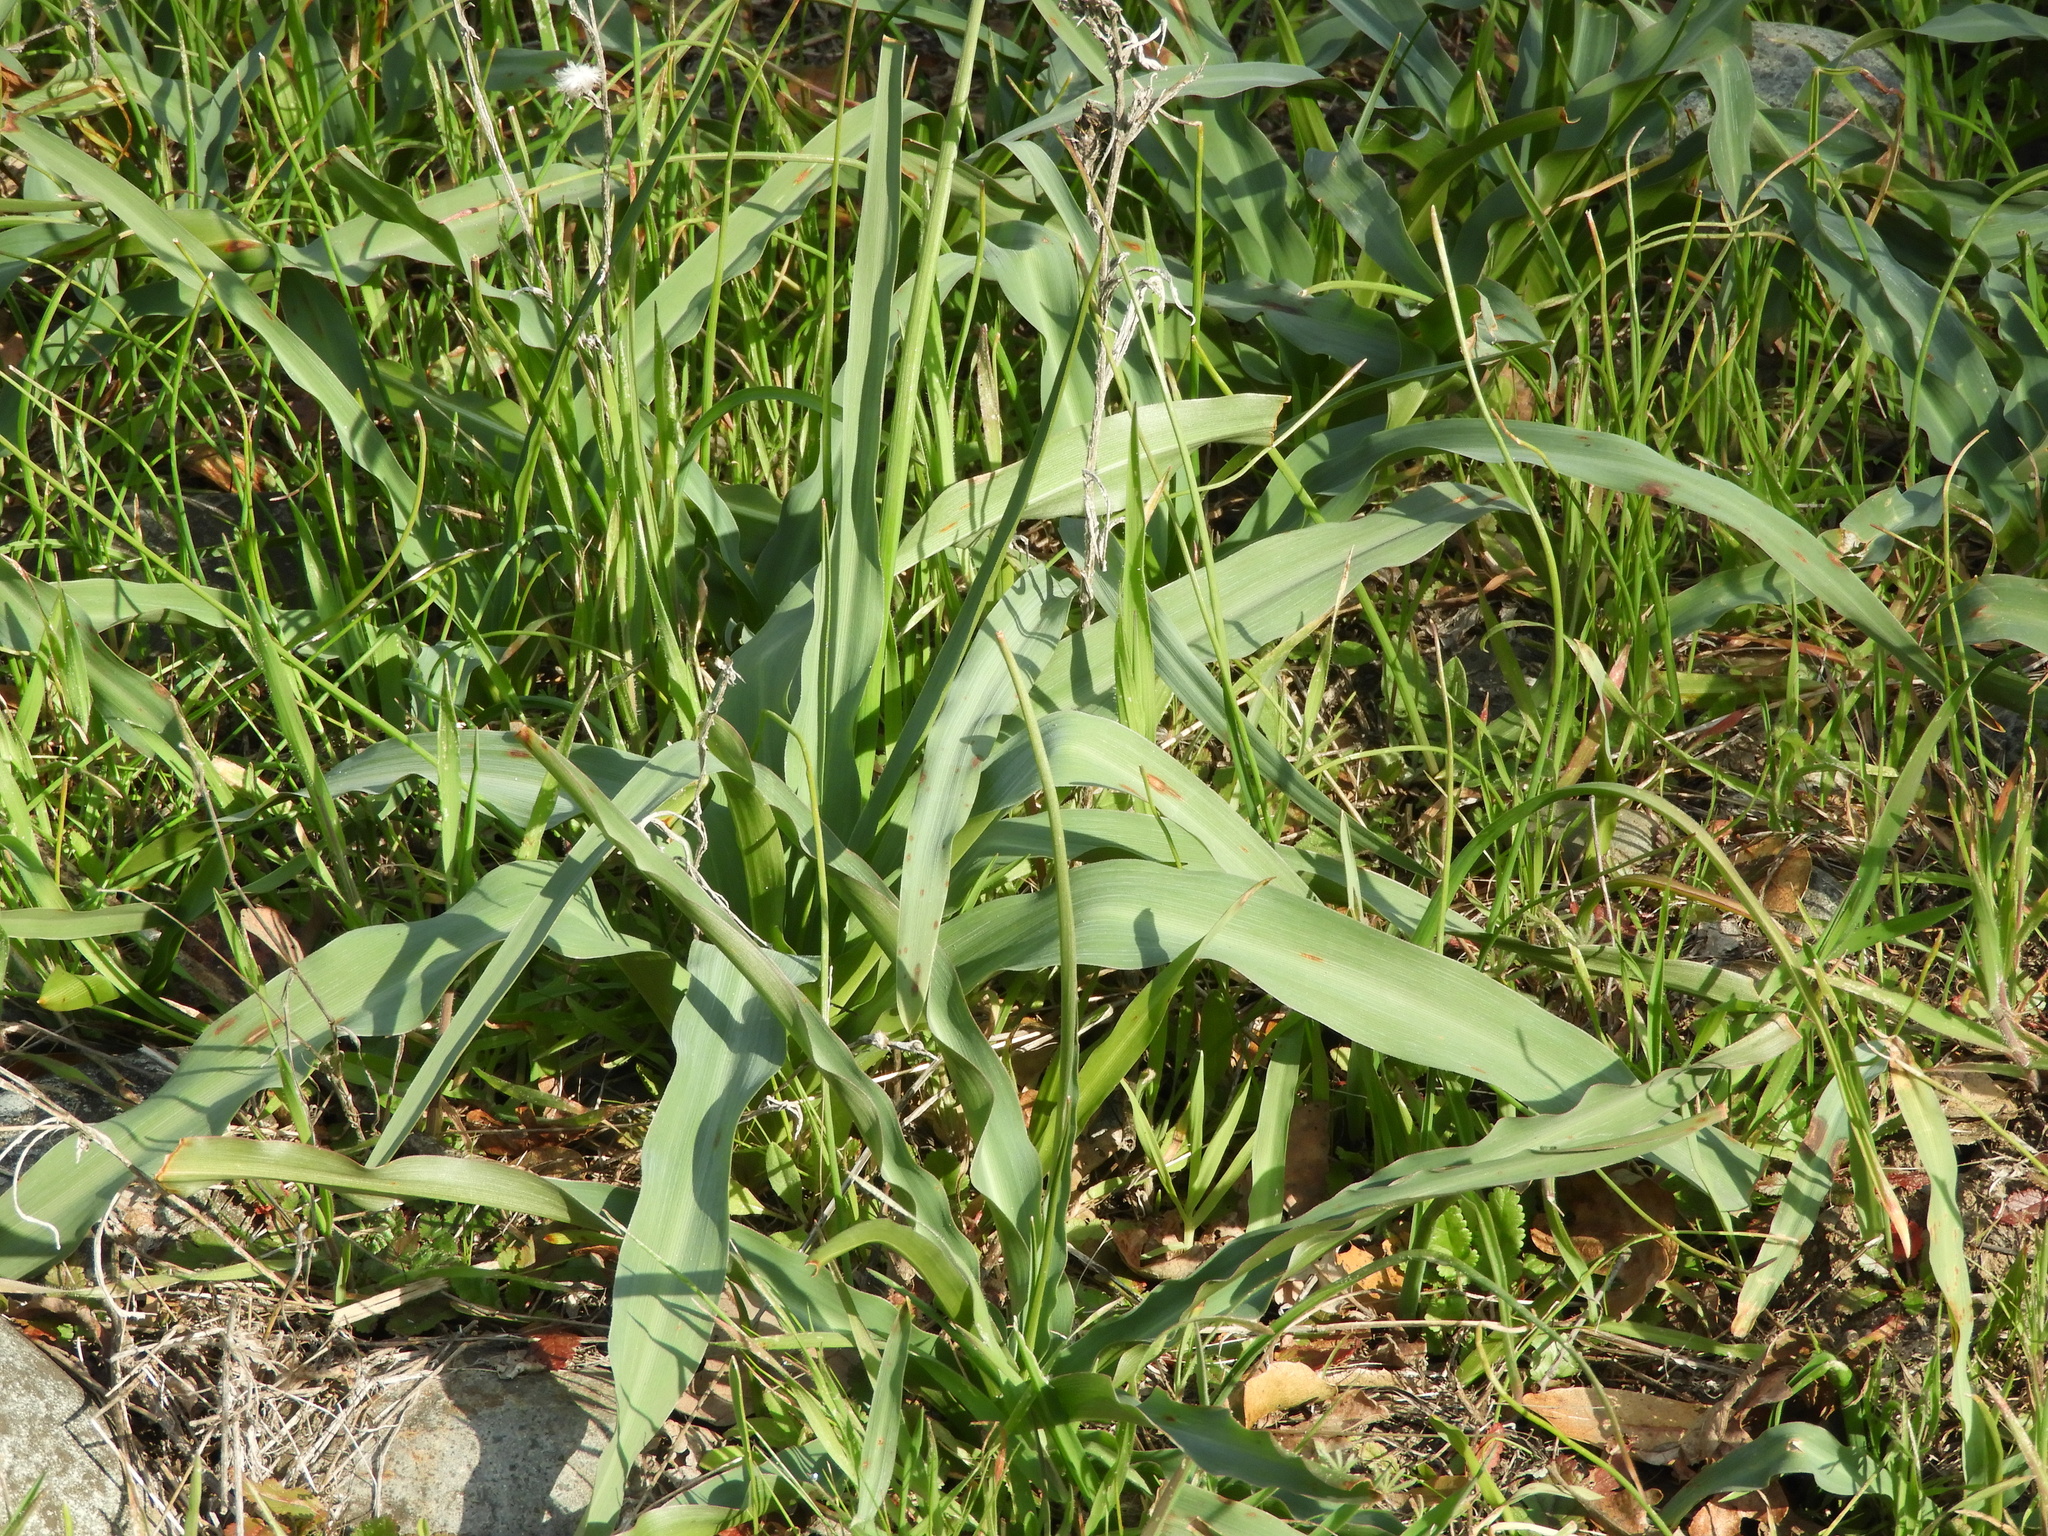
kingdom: Plantae
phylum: Tracheophyta
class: Liliopsida
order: Asparagales
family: Asparagaceae
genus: Chlorogalum
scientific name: Chlorogalum pomeridianum
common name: Amole
